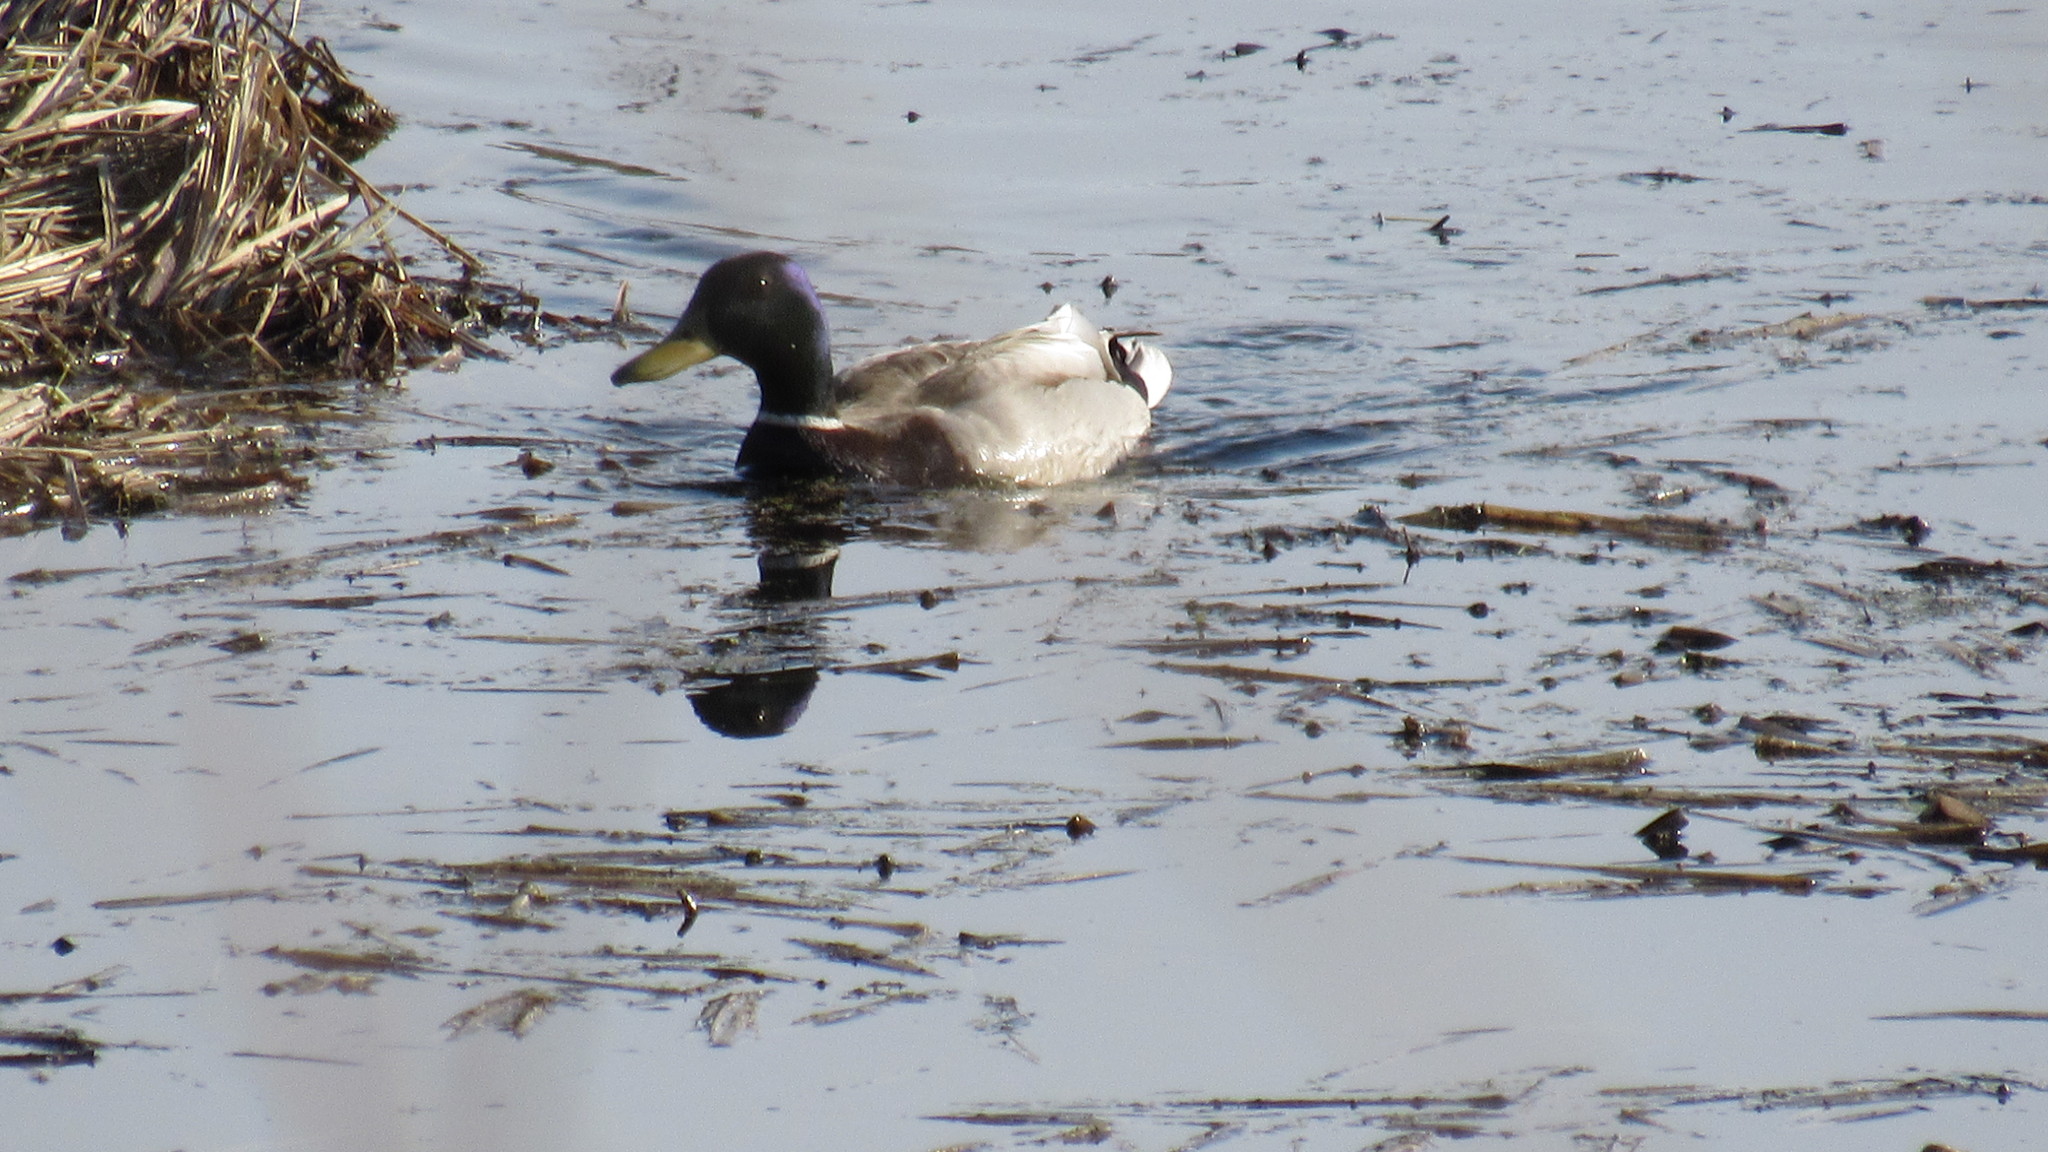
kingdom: Animalia
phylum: Chordata
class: Aves
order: Anseriformes
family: Anatidae
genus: Anas
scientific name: Anas platyrhynchos
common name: Mallard
